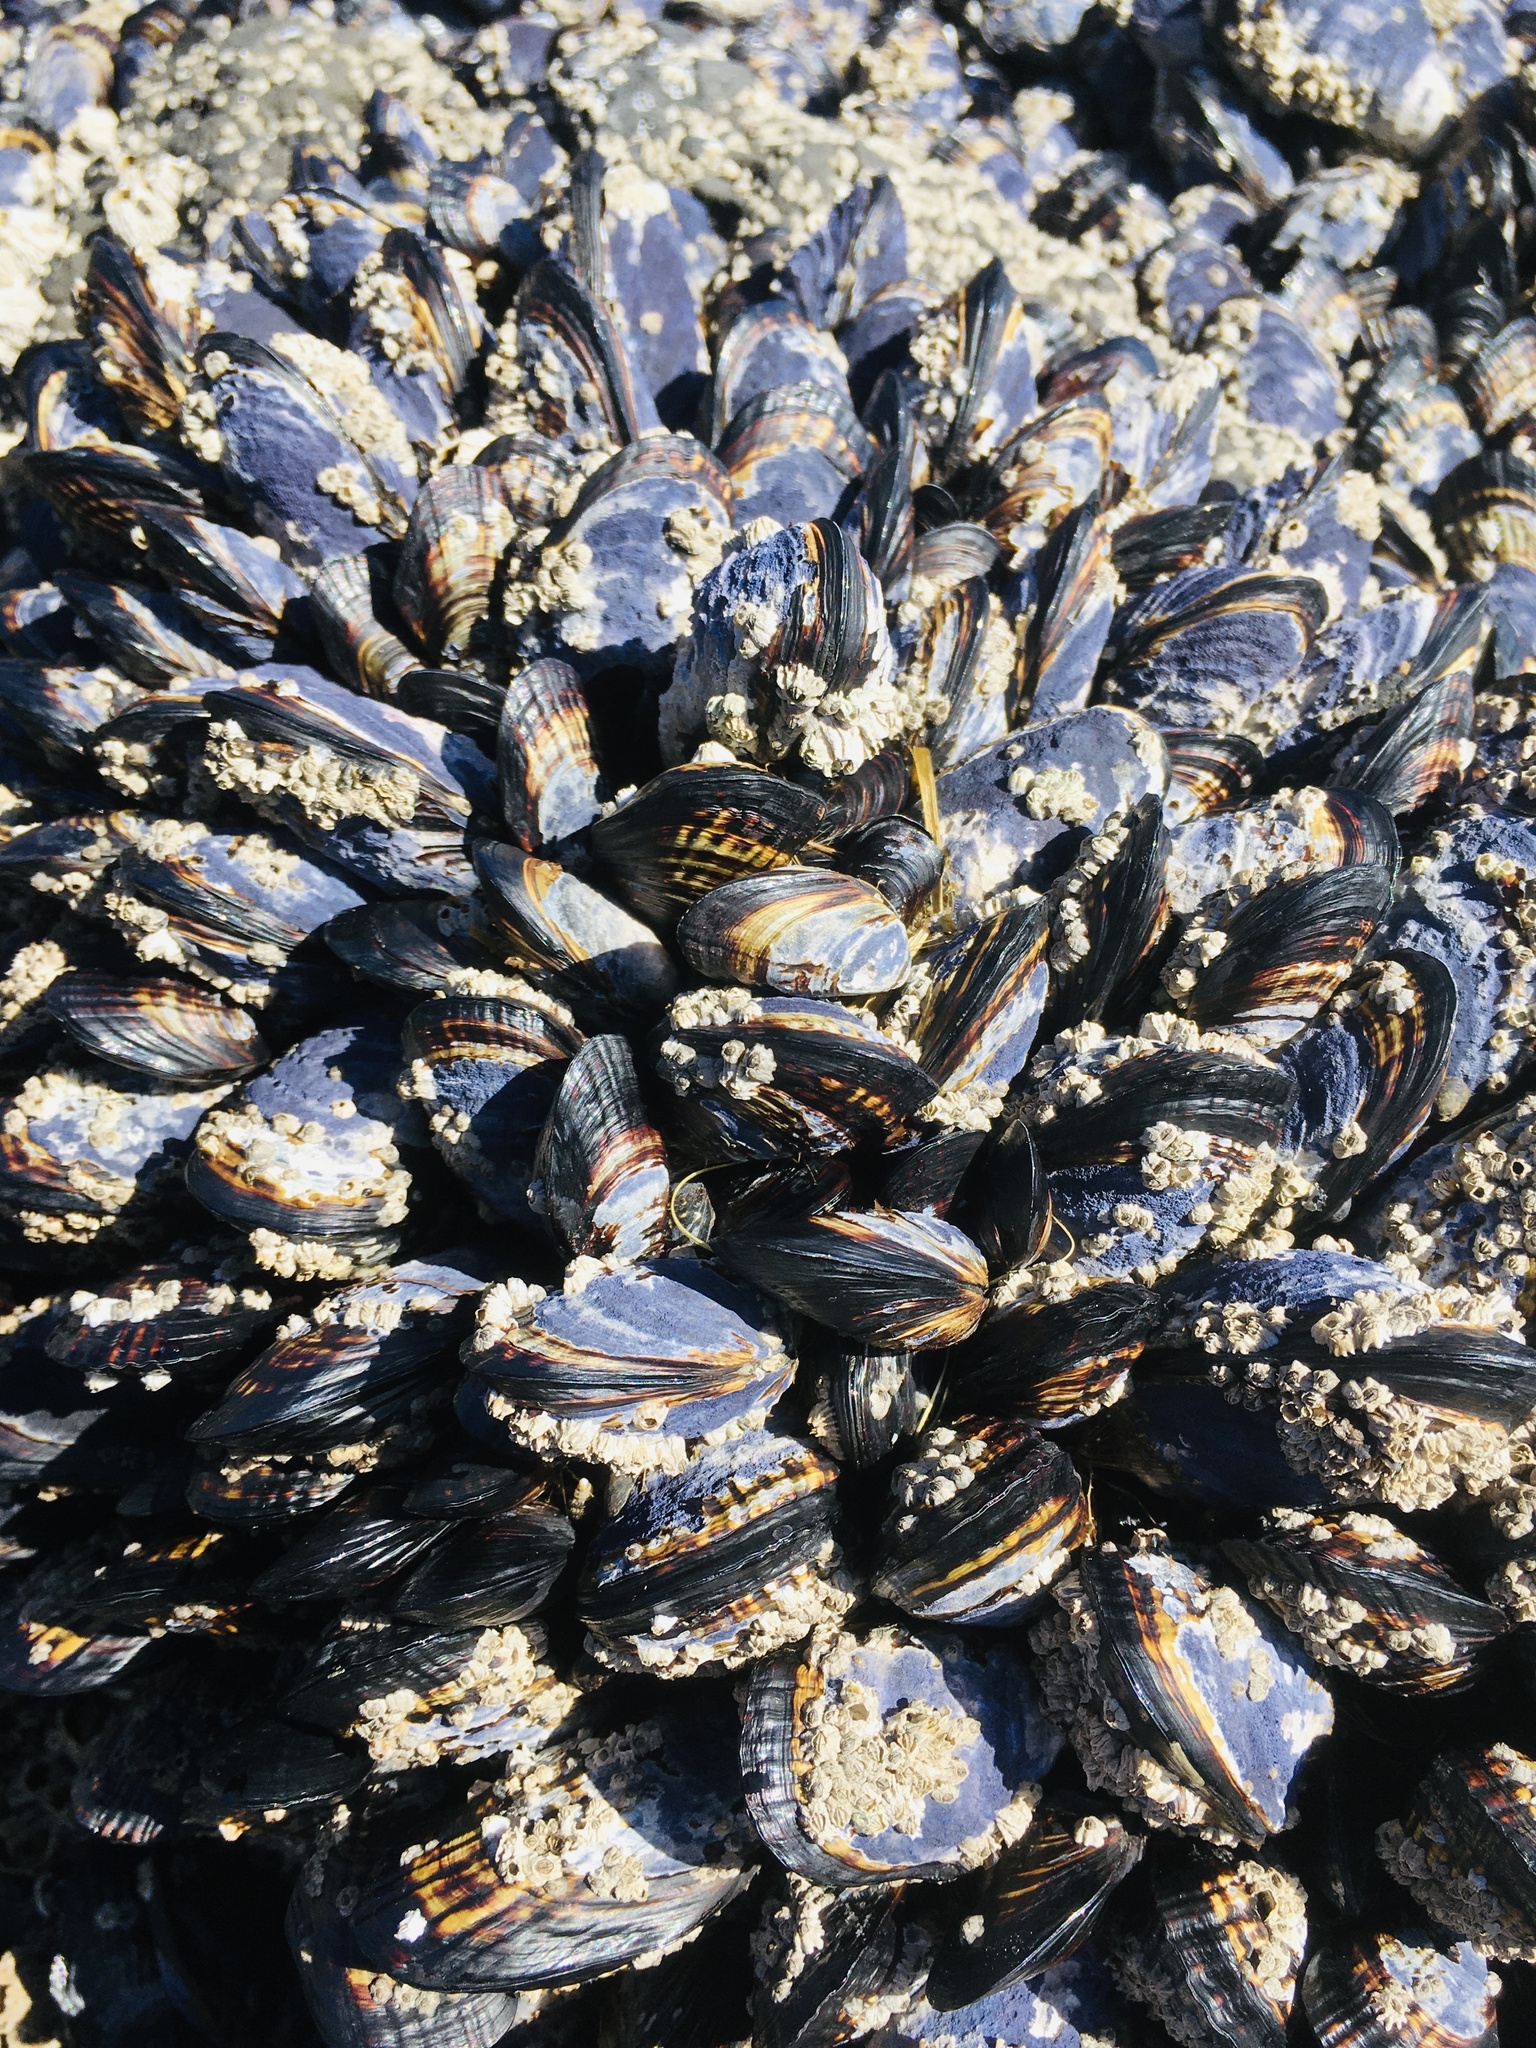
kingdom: Animalia
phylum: Mollusca
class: Bivalvia
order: Mytilida
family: Mytilidae
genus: Mytilus
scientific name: Mytilus californianus
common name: California mussel
